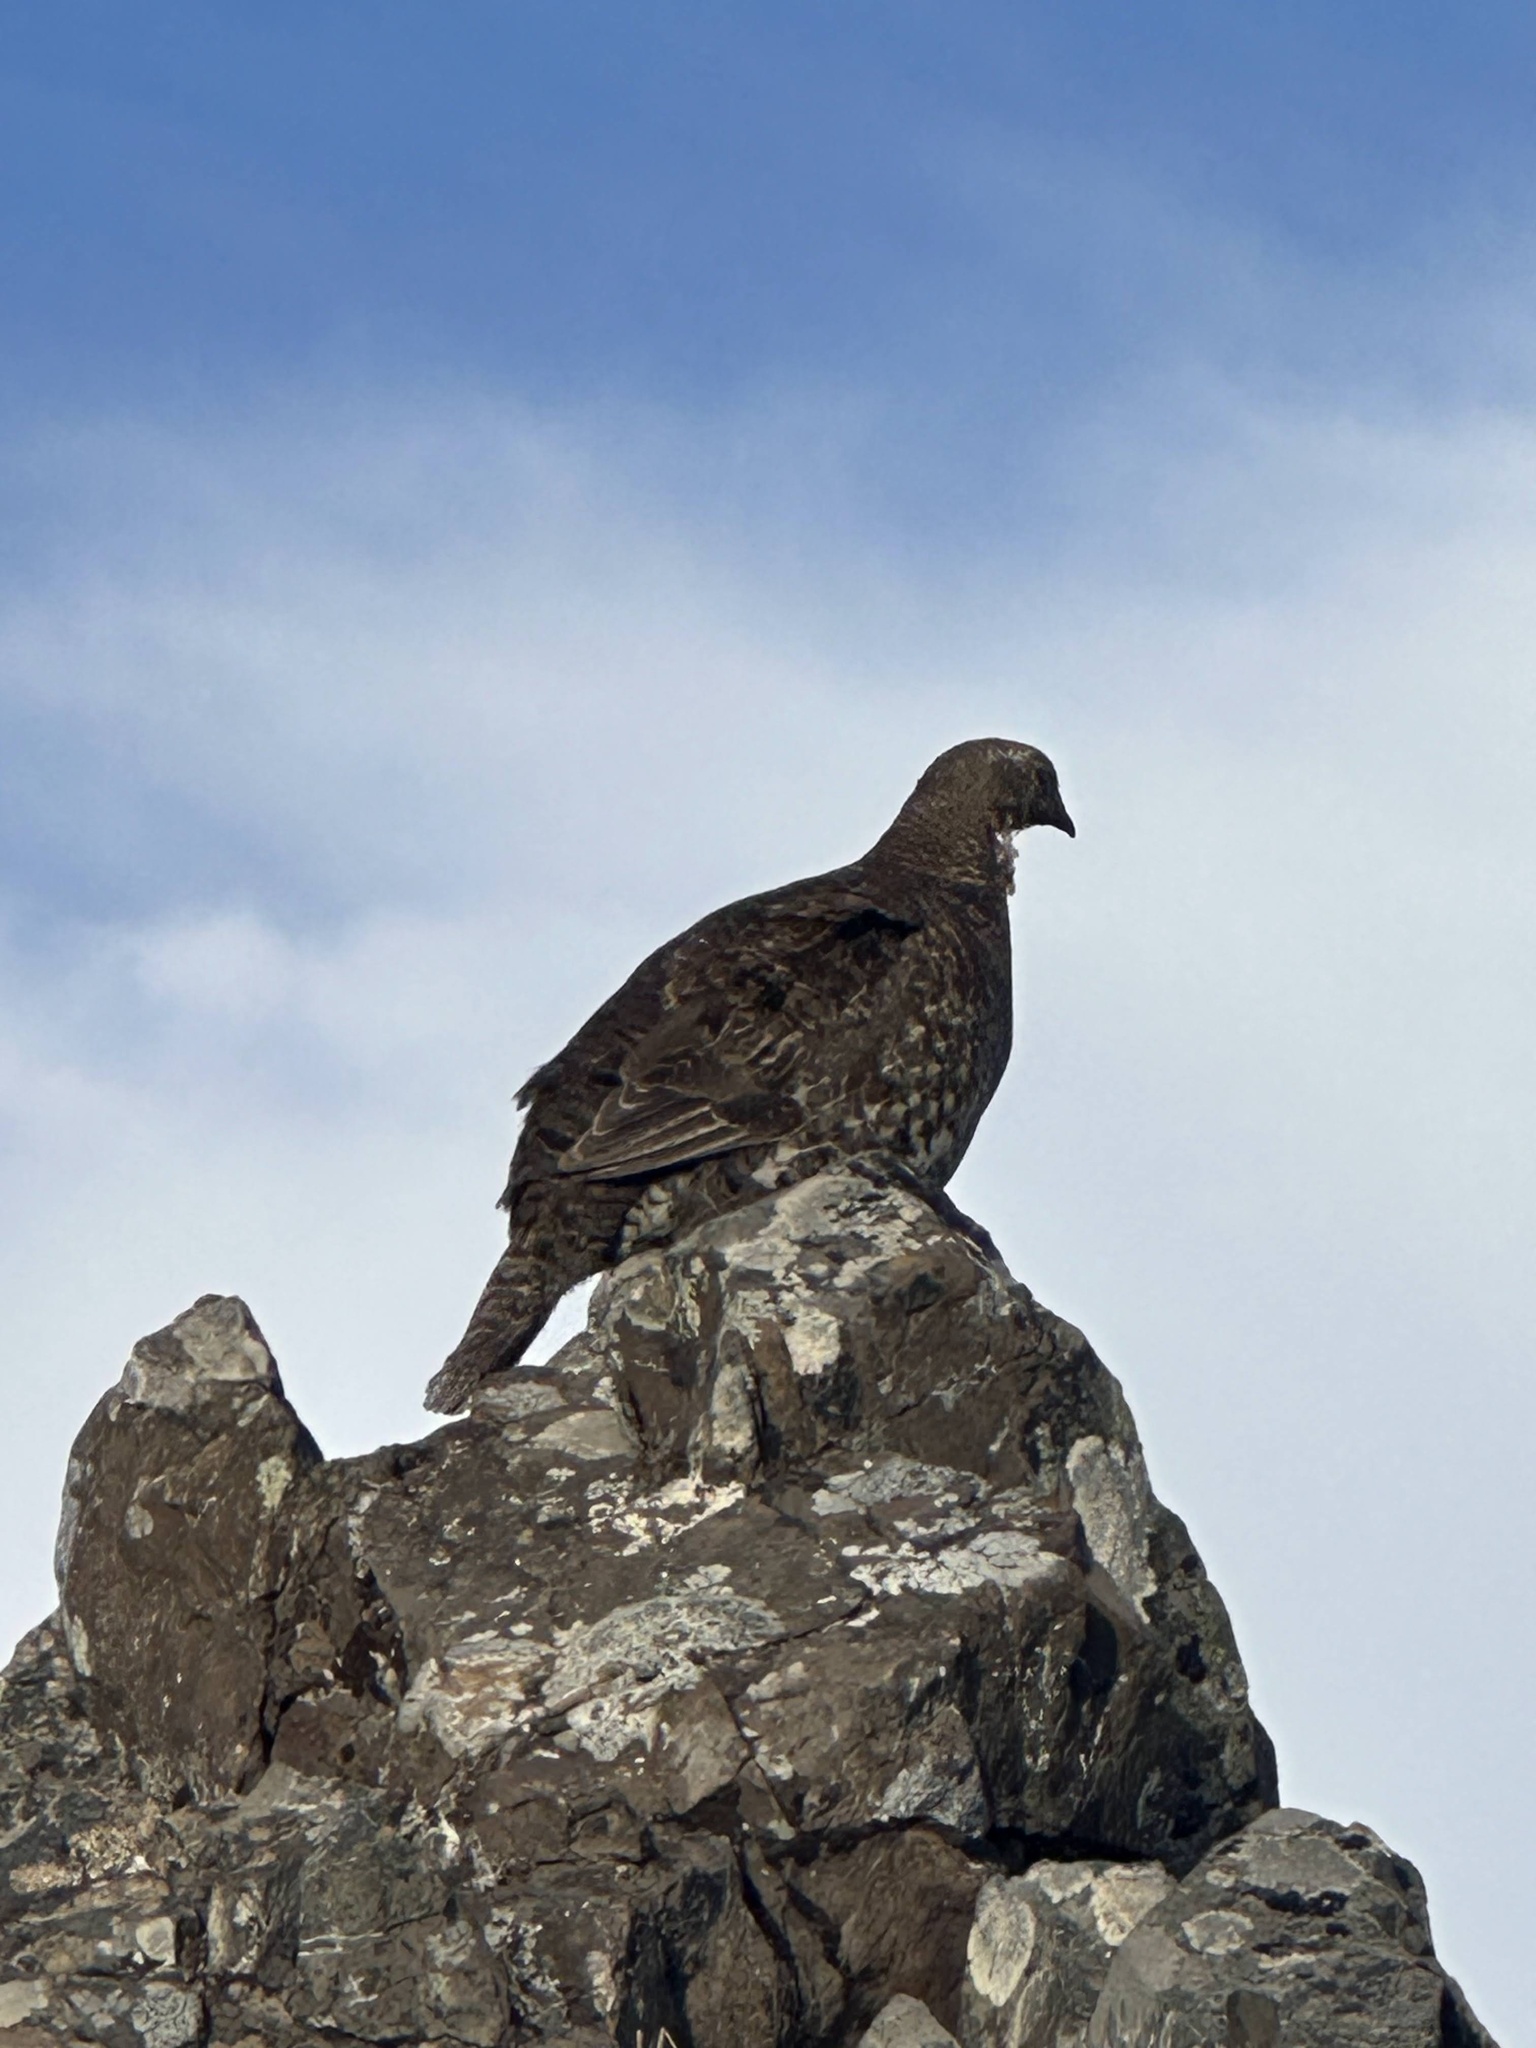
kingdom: Animalia
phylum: Chordata
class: Aves
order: Galliformes
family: Phasianidae
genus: Dendragapus
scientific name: Dendragapus fuliginosus
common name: Sooty grouse
